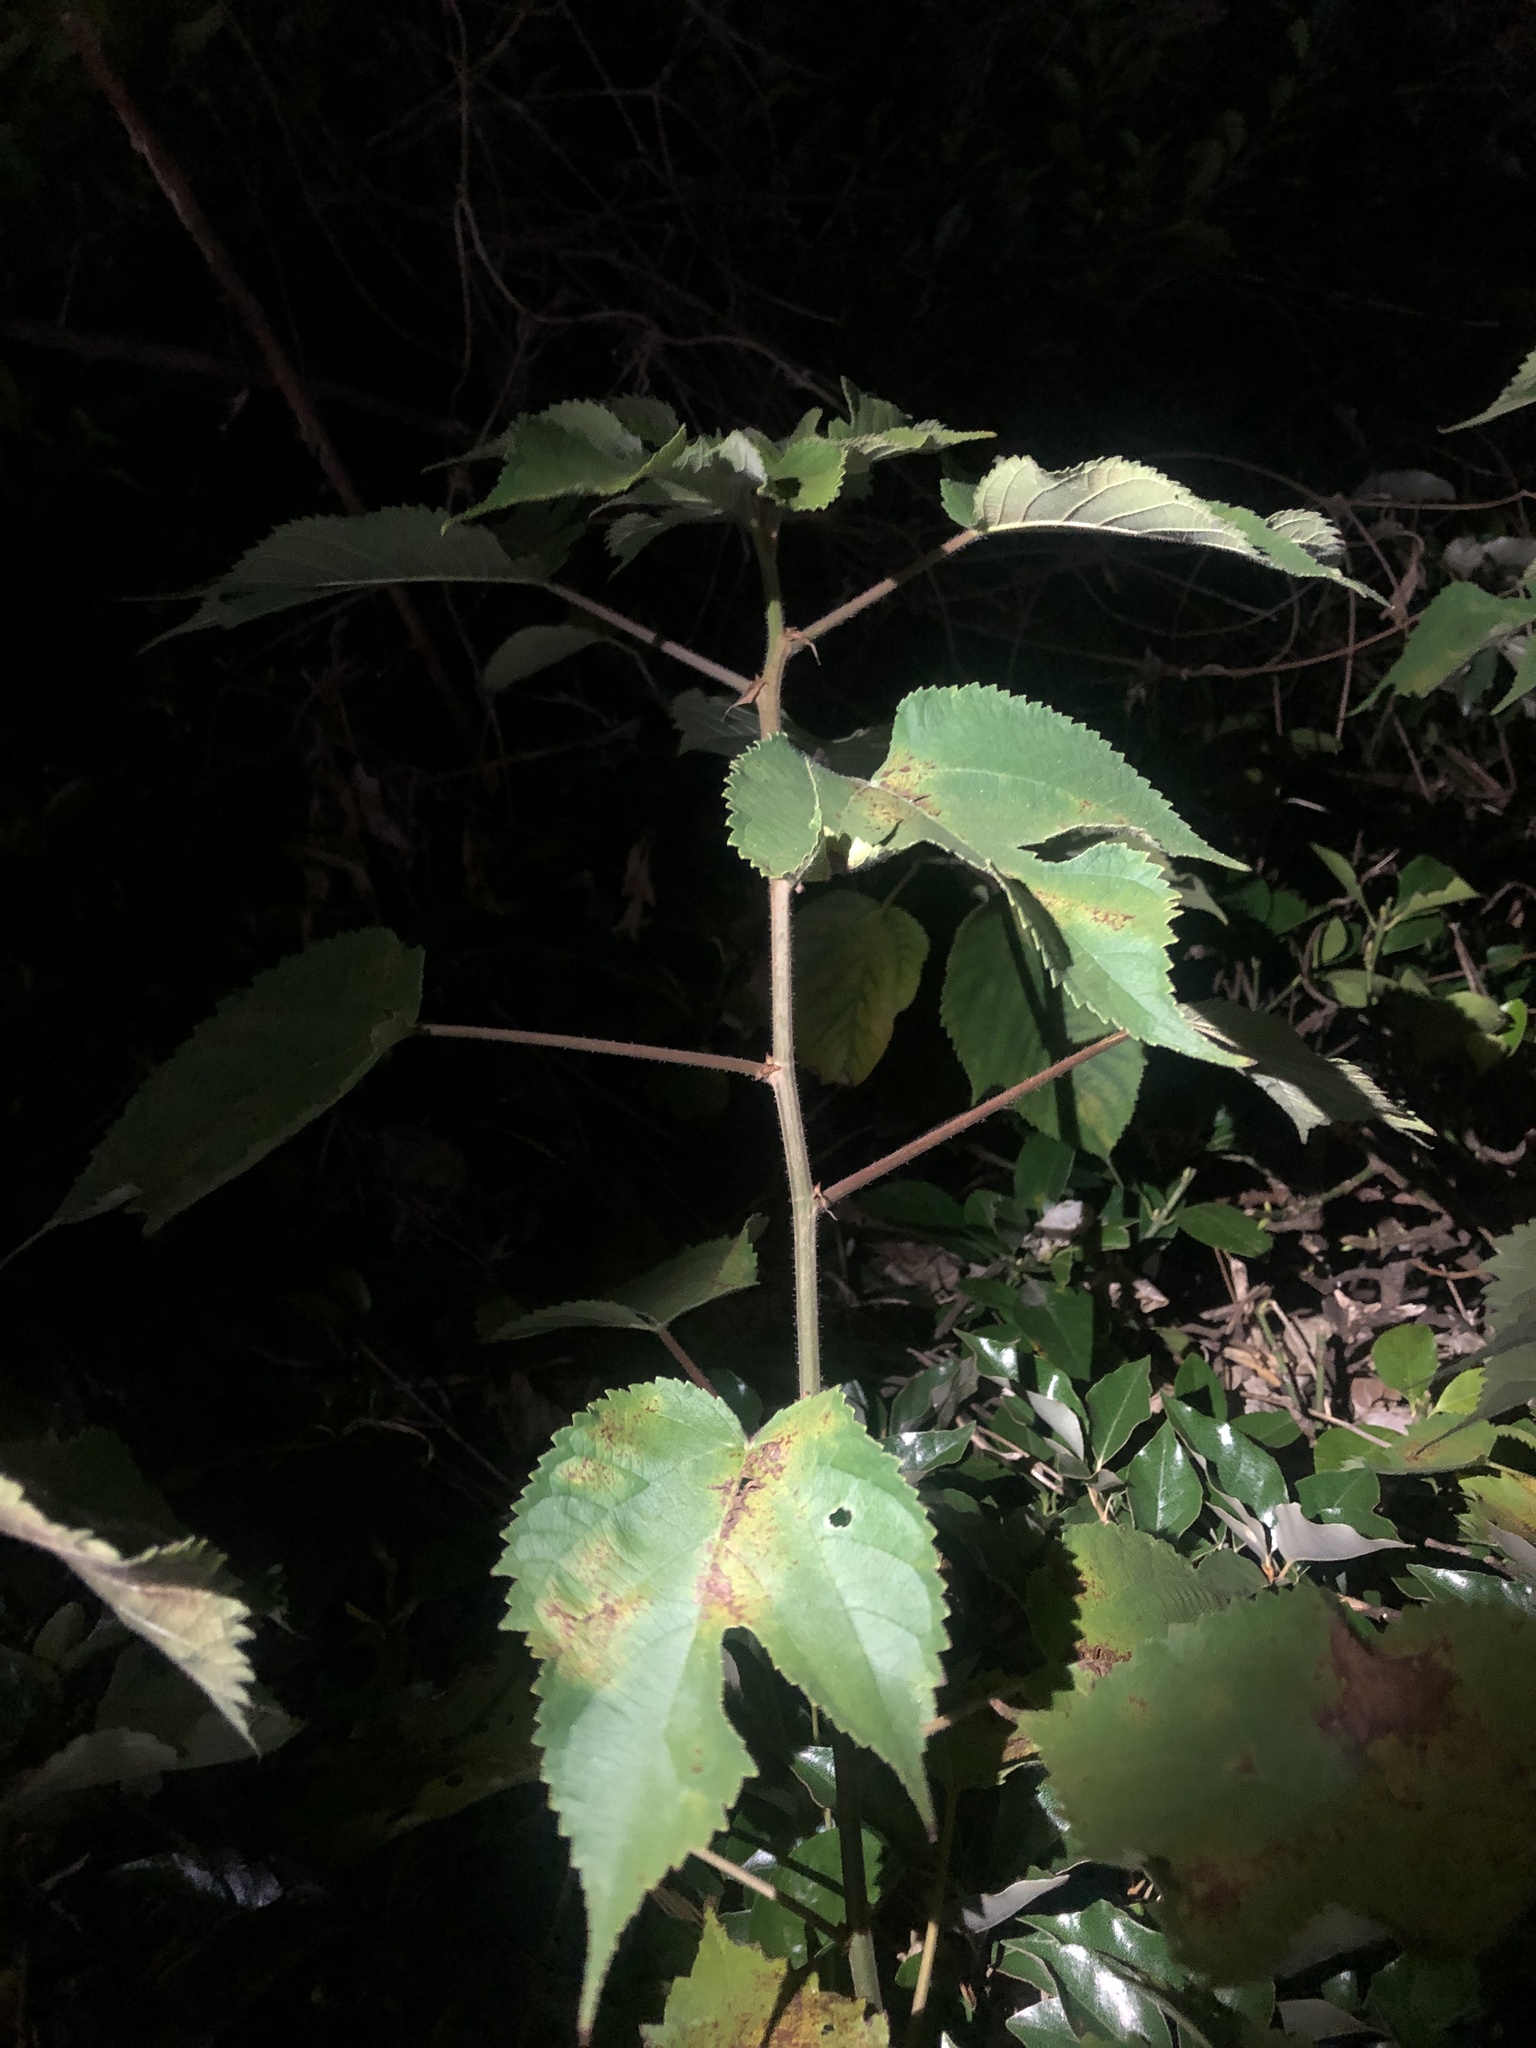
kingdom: Plantae
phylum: Tracheophyta
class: Magnoliopsida
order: Rosales
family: Moraceae
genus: Broussonetia
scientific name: Broussonetia papyrifera
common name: Paper mulberry
